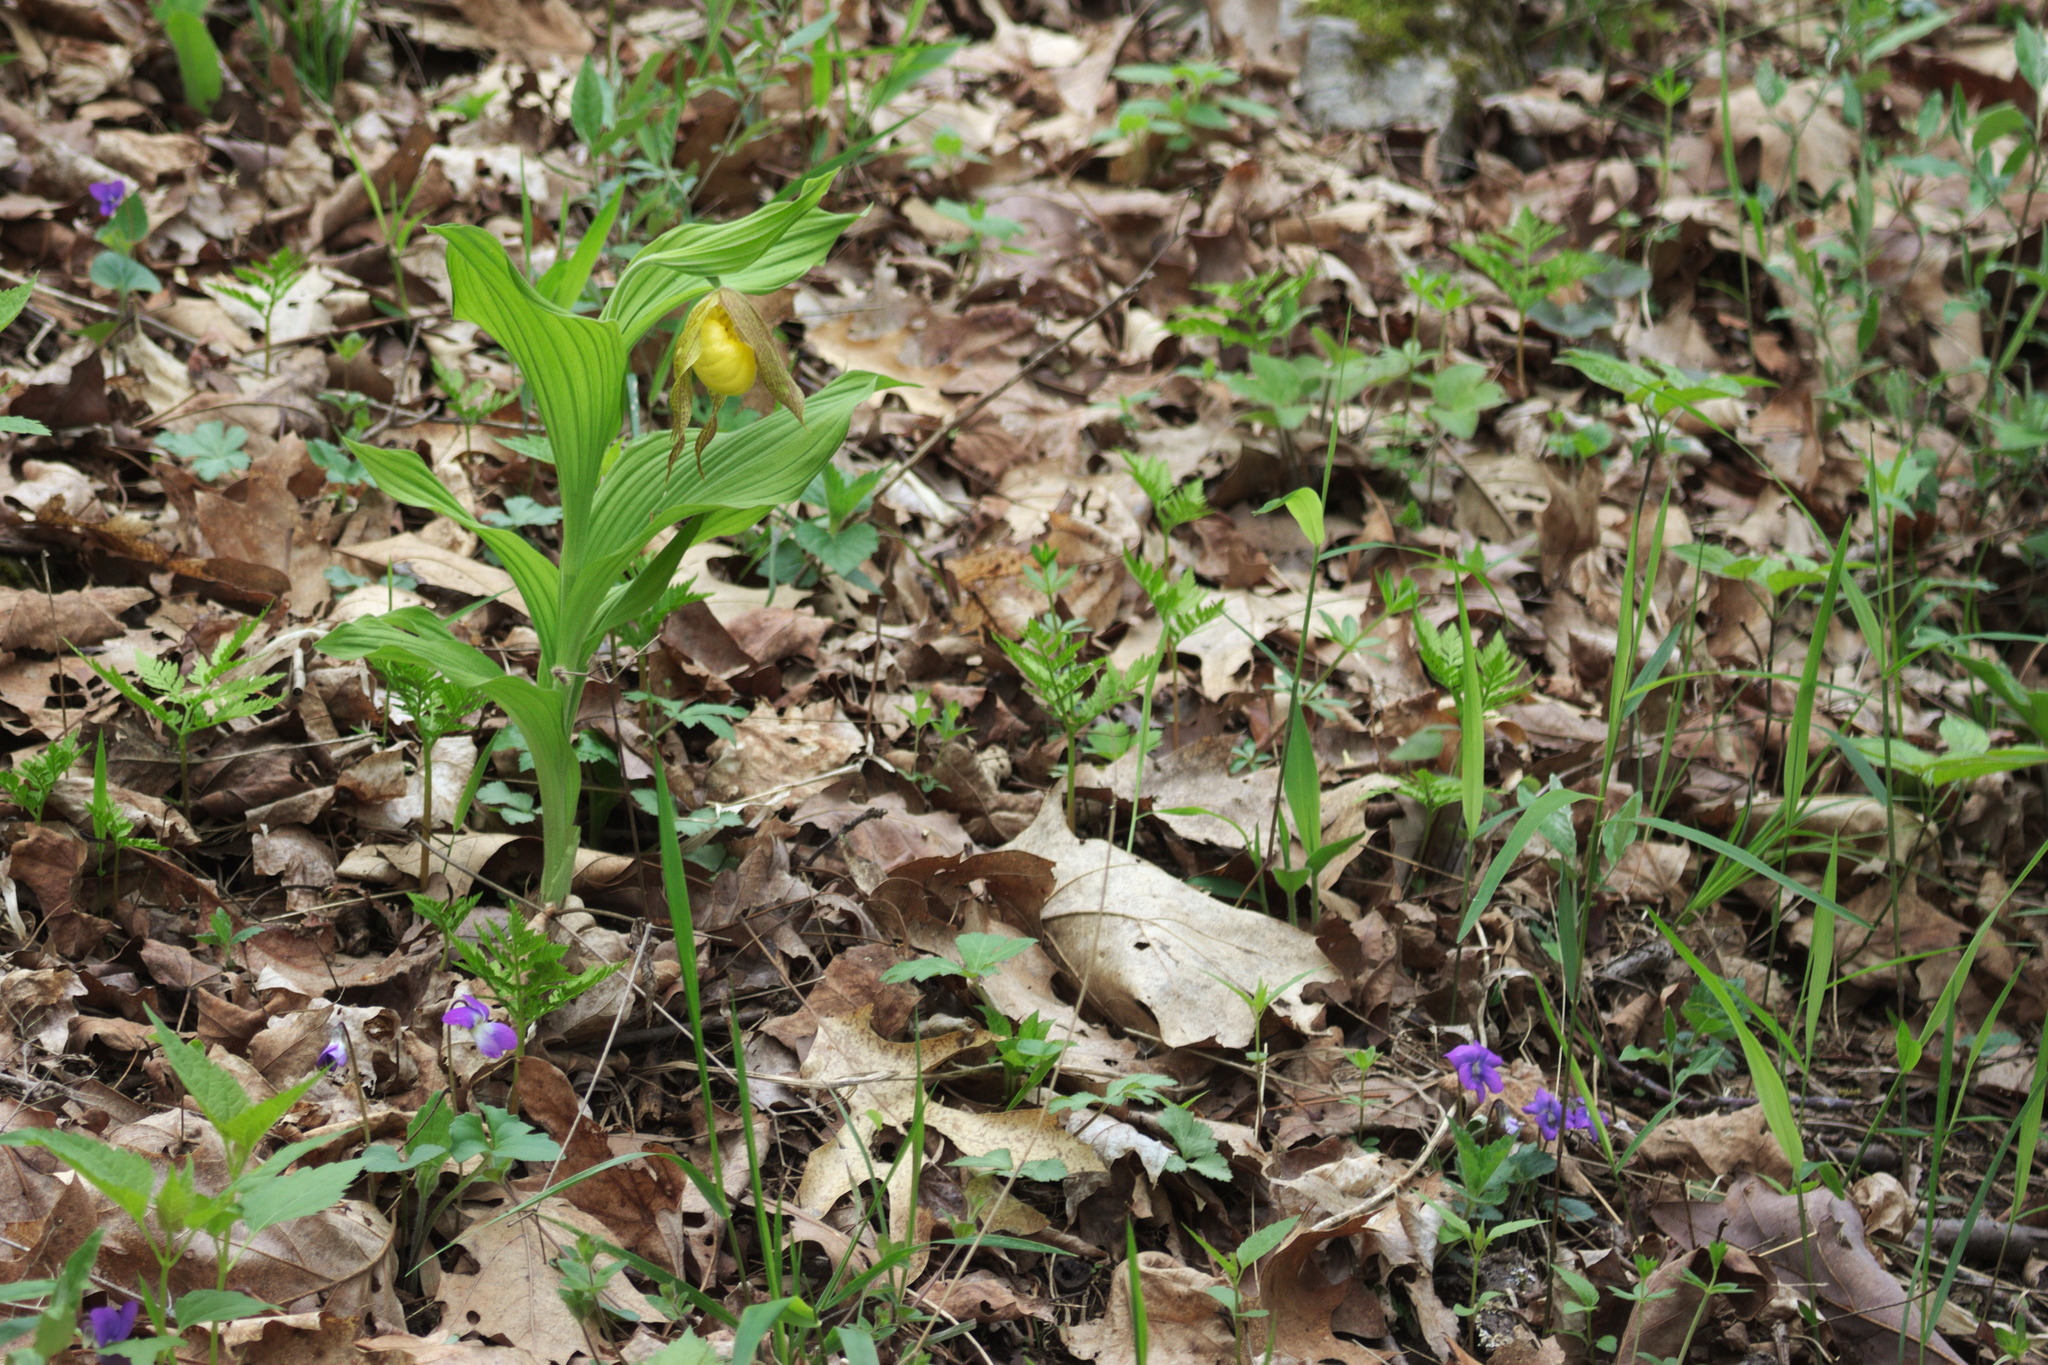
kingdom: Plantae
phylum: Tracheophyta
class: Liliopsida
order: Asparagales
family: Orchidaceae
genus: Cypripedium
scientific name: Cypripedium parviflorum
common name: American yellow lady's-slipper
